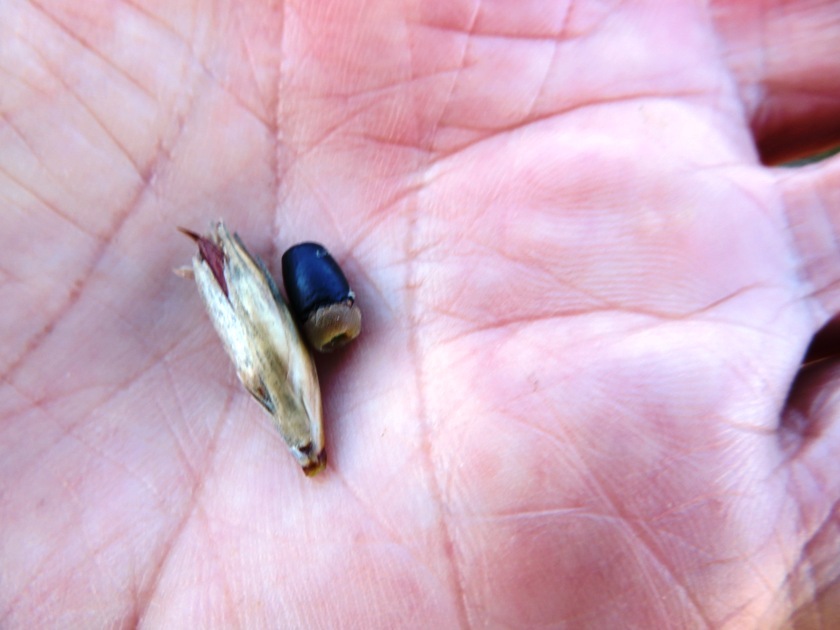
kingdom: Plantae
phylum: Tracheophyta
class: Liliopsida
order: Poales
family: Restionaceae
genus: Hypodiscus
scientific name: Hypodiscus argenteus
